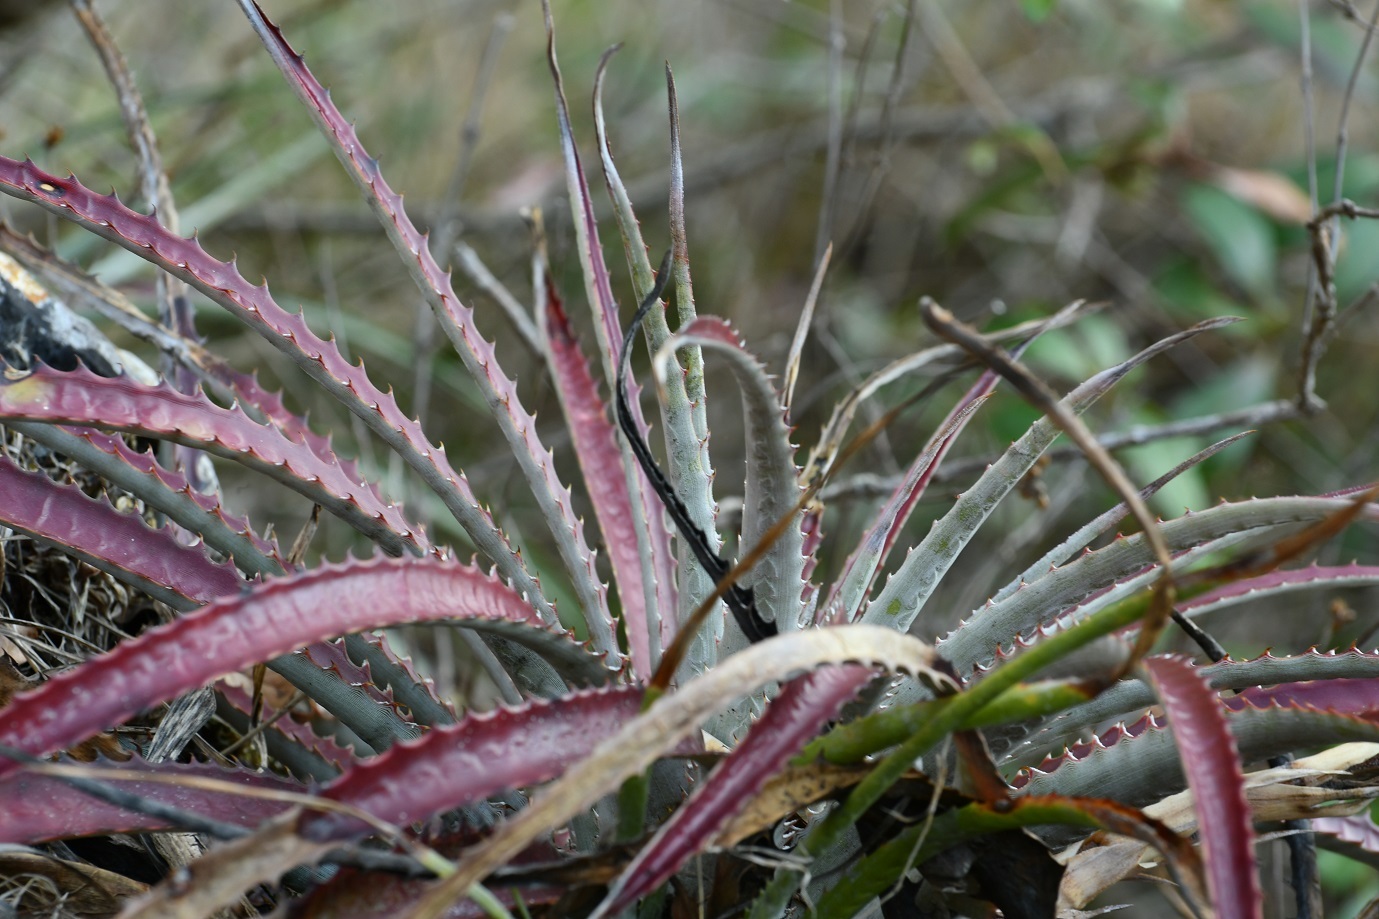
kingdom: Plantae
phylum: Tracheophyta
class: Liliopsida
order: Poales
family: Bromeliaceae
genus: Hechtia
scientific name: Hechtia glomerata
